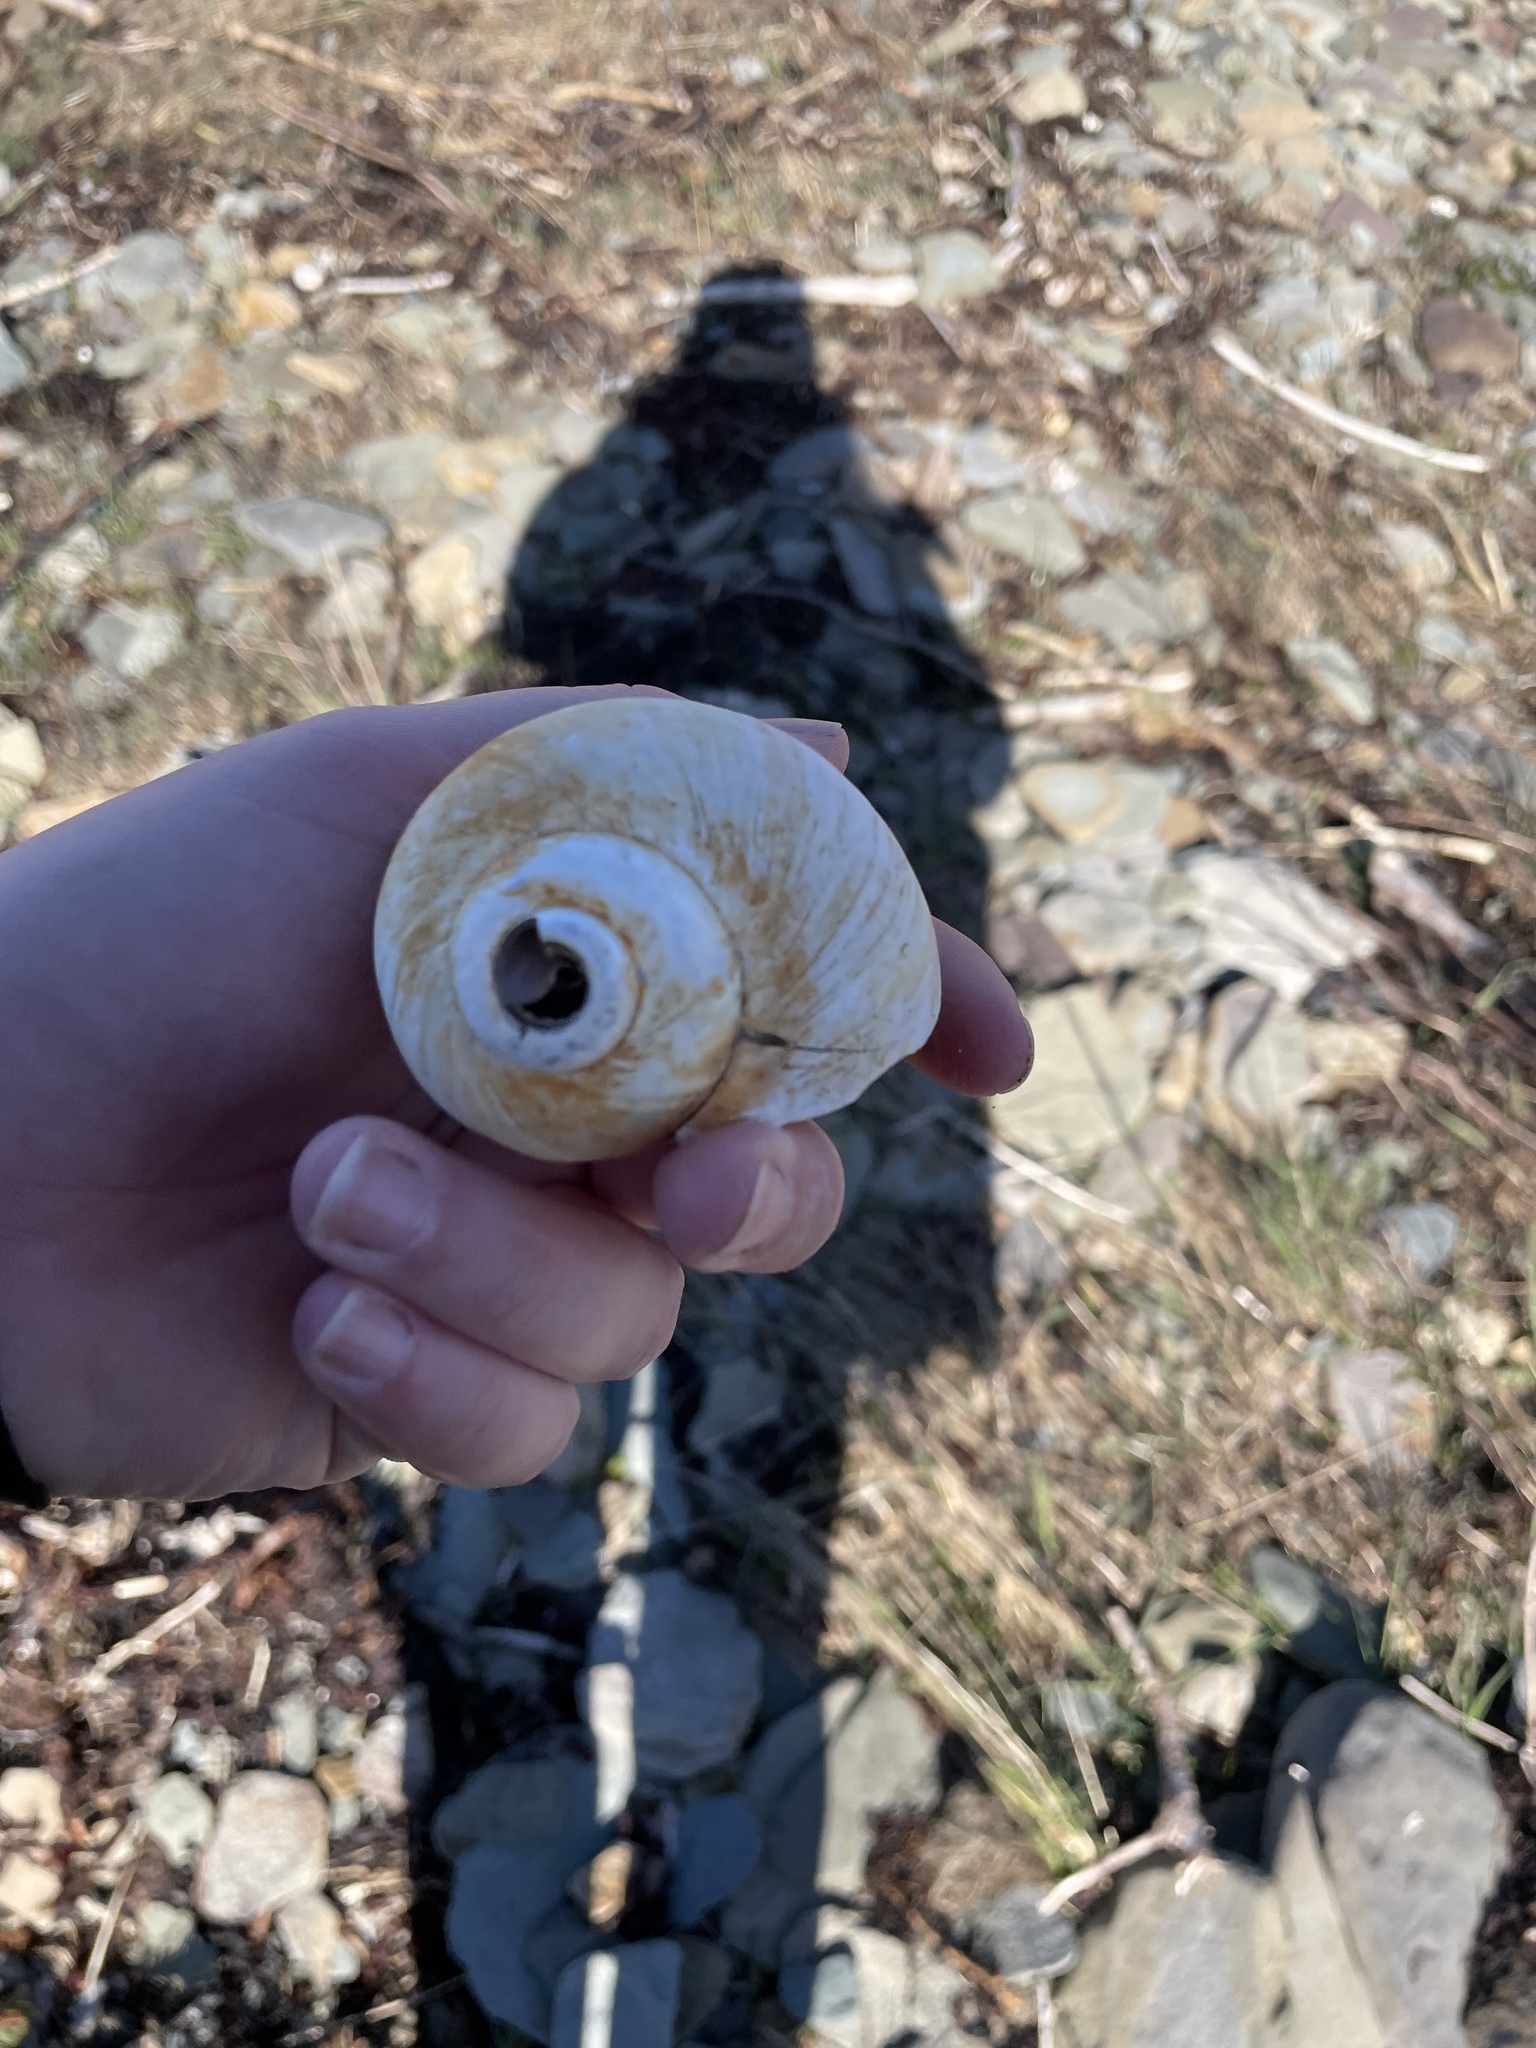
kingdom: Animalia
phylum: Mollusca
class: Gastropoda
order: Littorinimorpha
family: Naticidae
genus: Euspira
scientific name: Euspira heros
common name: Common northern moonsnail
